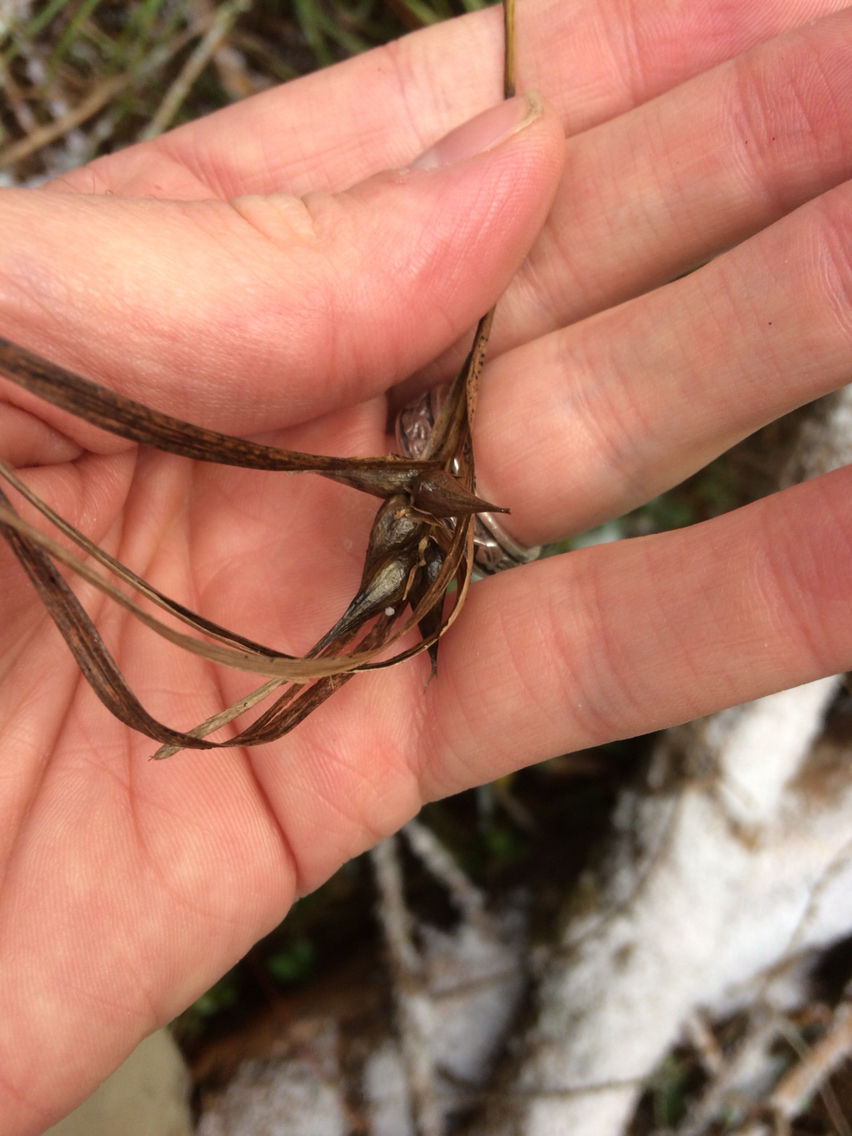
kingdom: Plantae
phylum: Tracheophyta
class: Liliopsida
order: Poales
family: Cyperaceae
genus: Carex
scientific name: Carex intumescens
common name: Greater bladder sedge
